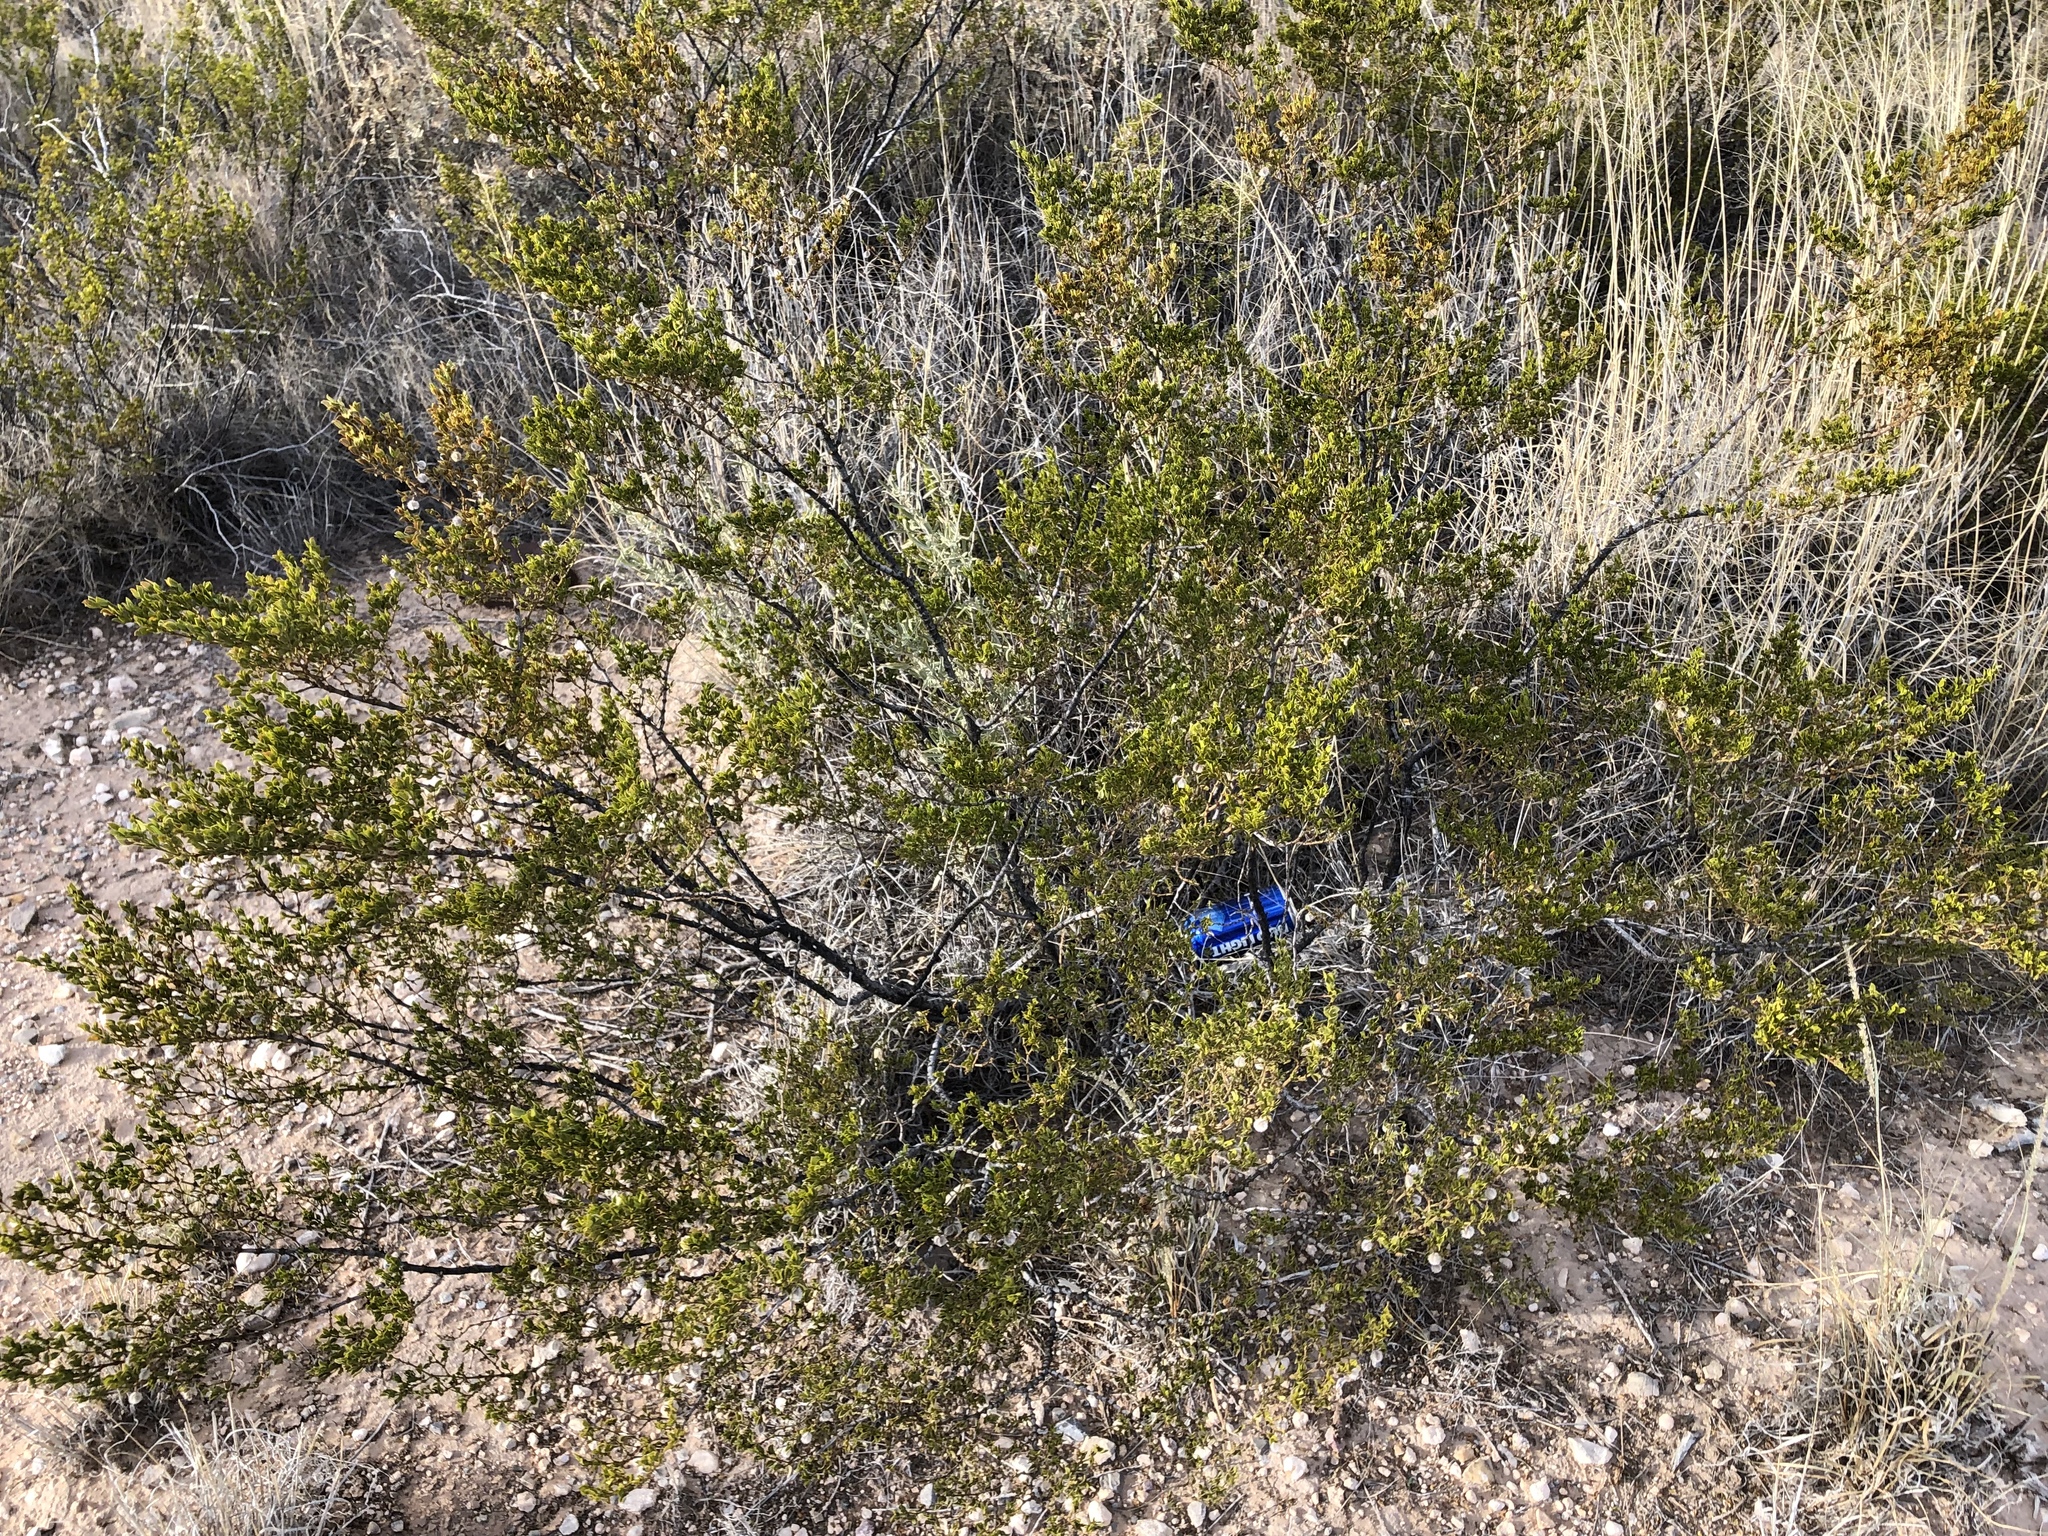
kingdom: Plantae
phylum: Tracheophyta
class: Magnoliopsida
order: Zygophyllales
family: Zygophyllaceae
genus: Larrea
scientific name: Larrea tridentata
